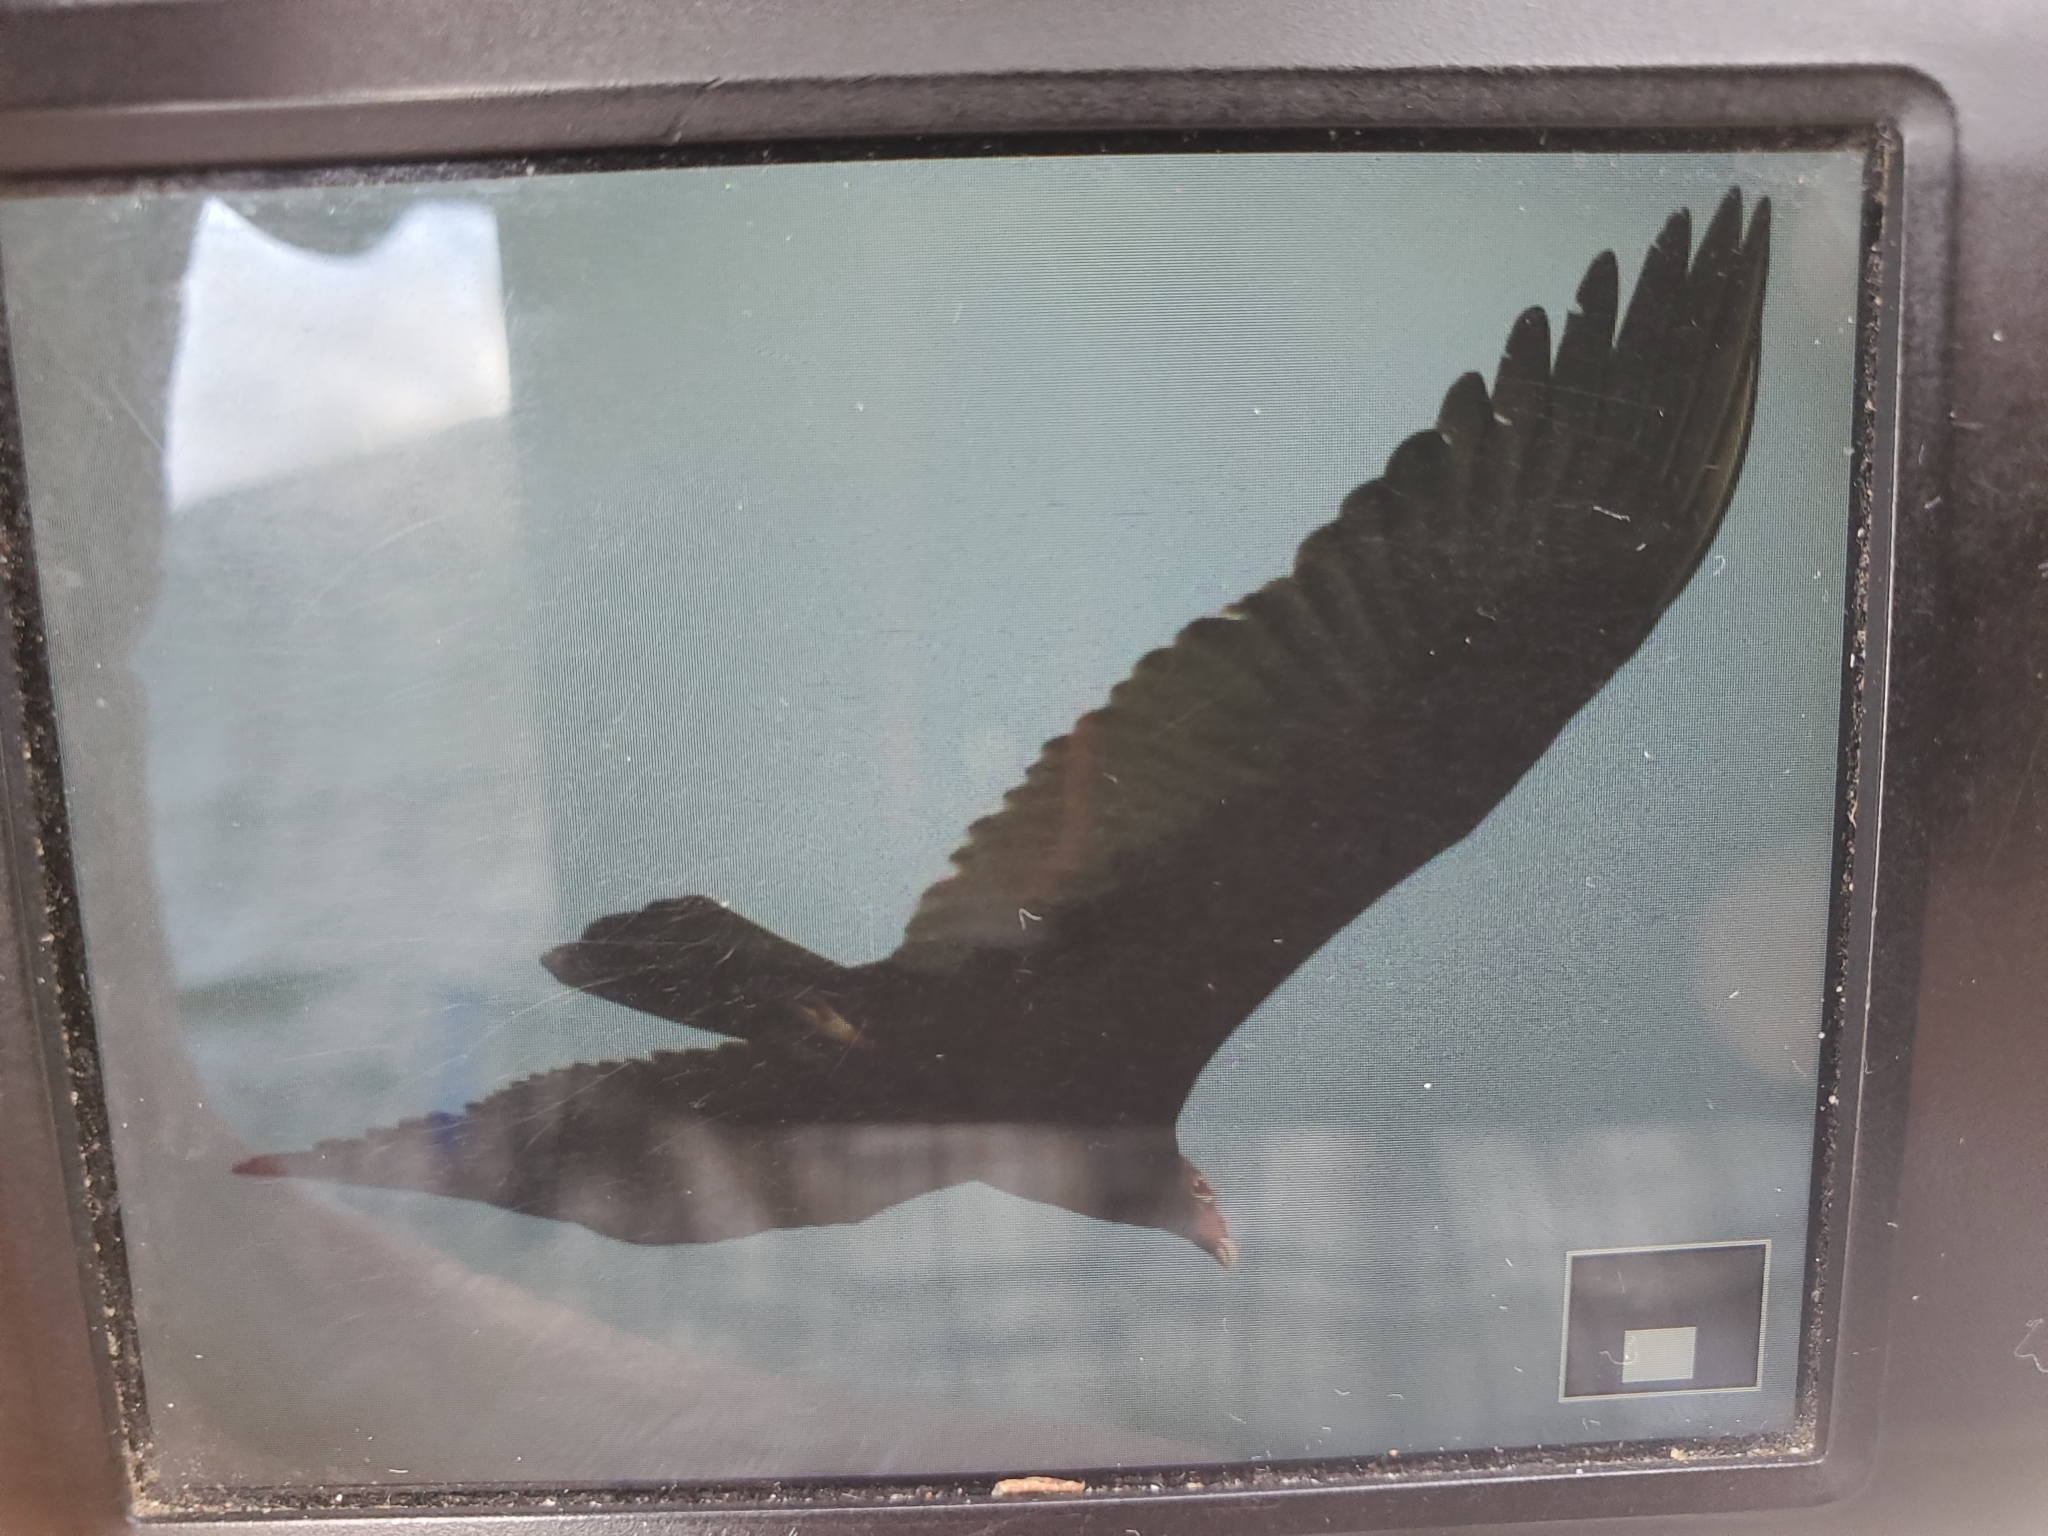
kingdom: Animalia
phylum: Chordata
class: Aves
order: Accipitriformes
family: Cathartidae
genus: Cathartes
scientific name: Cathartes aura
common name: Turkey vulture
